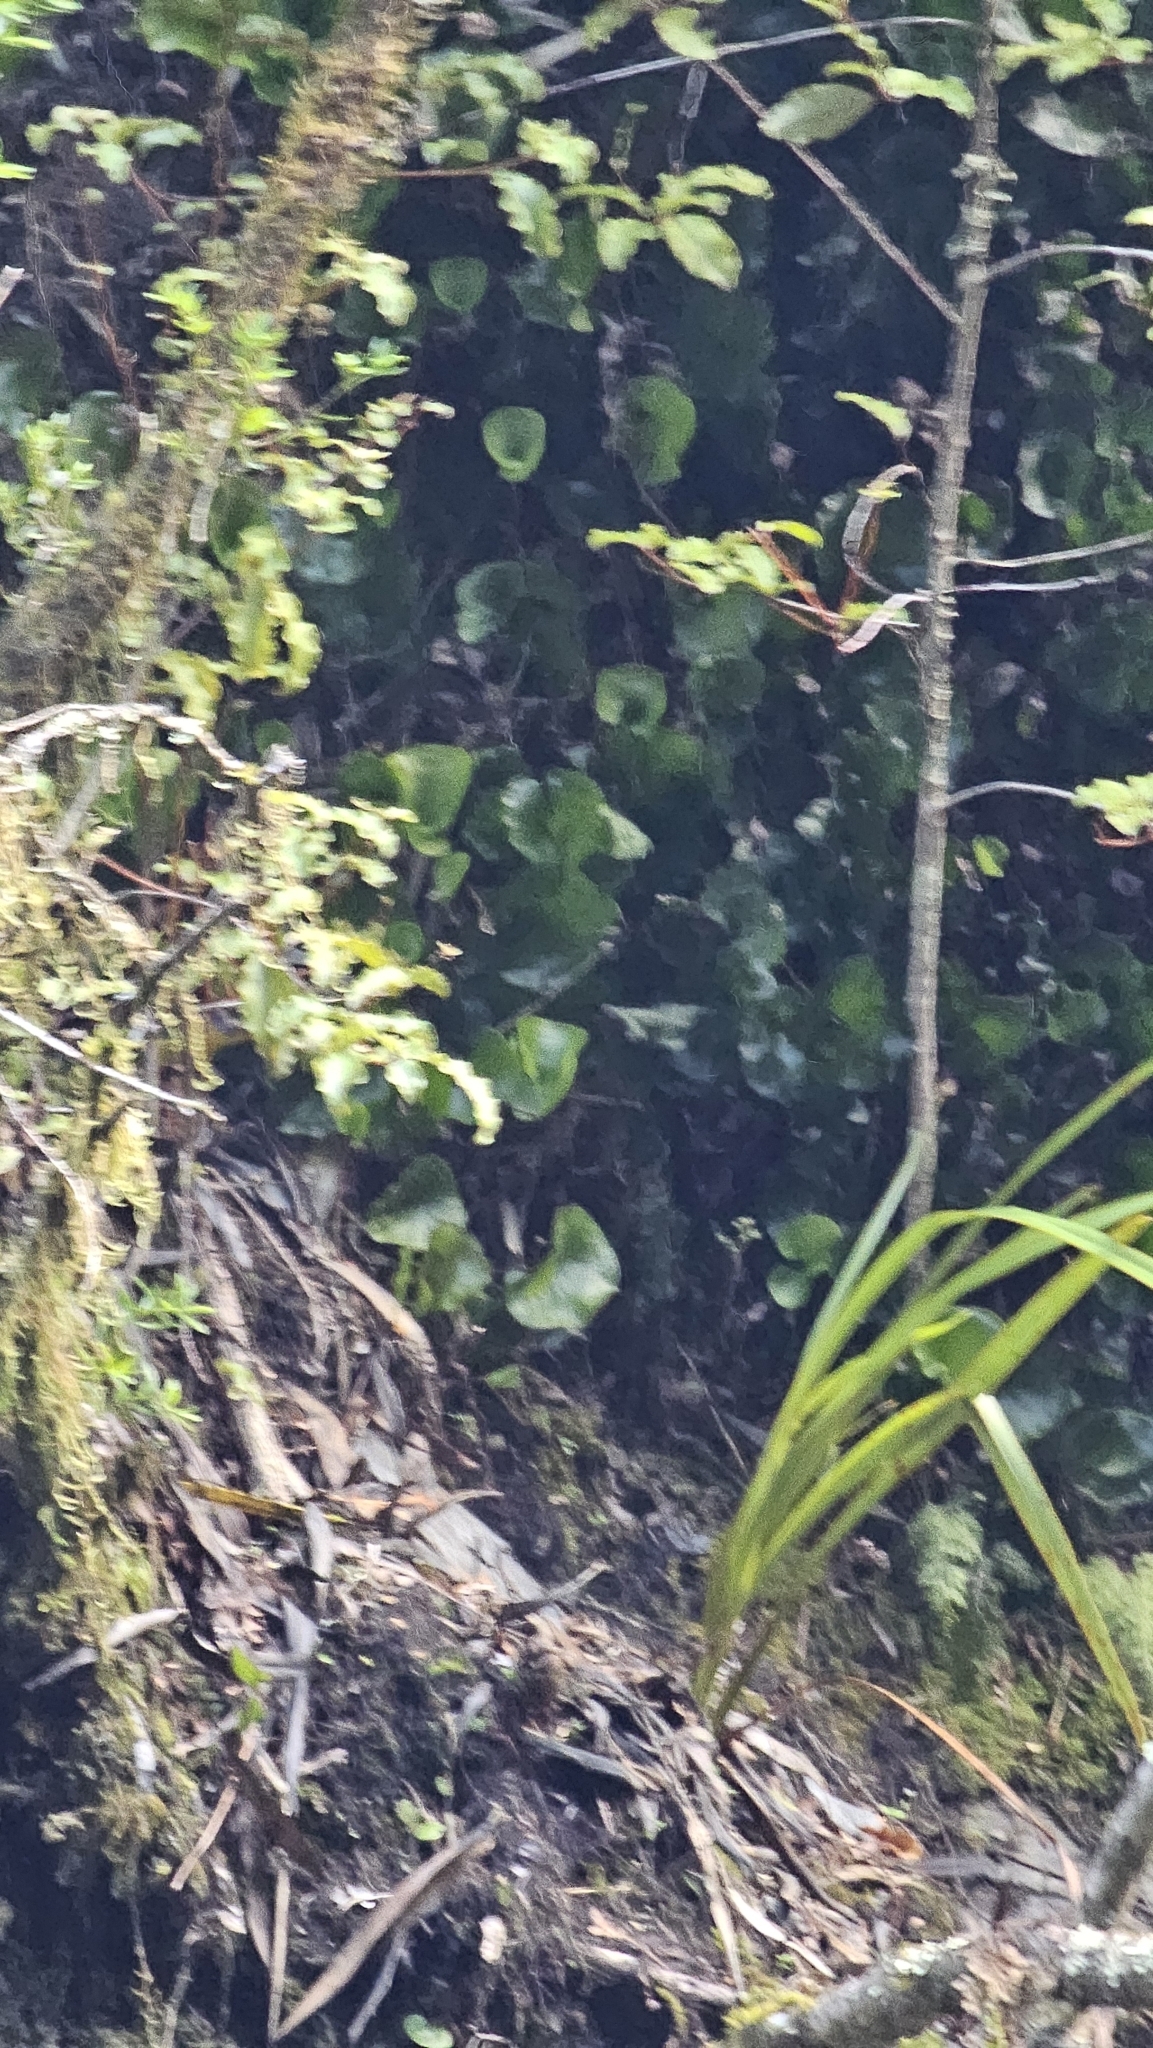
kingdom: Plantae
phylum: Tracheophyta
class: Polypodiopsida
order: Hymenophyllales
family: Hymenophyllaceae
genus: Hymenophyllum
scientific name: Hymenophyllum nephrophyllum
